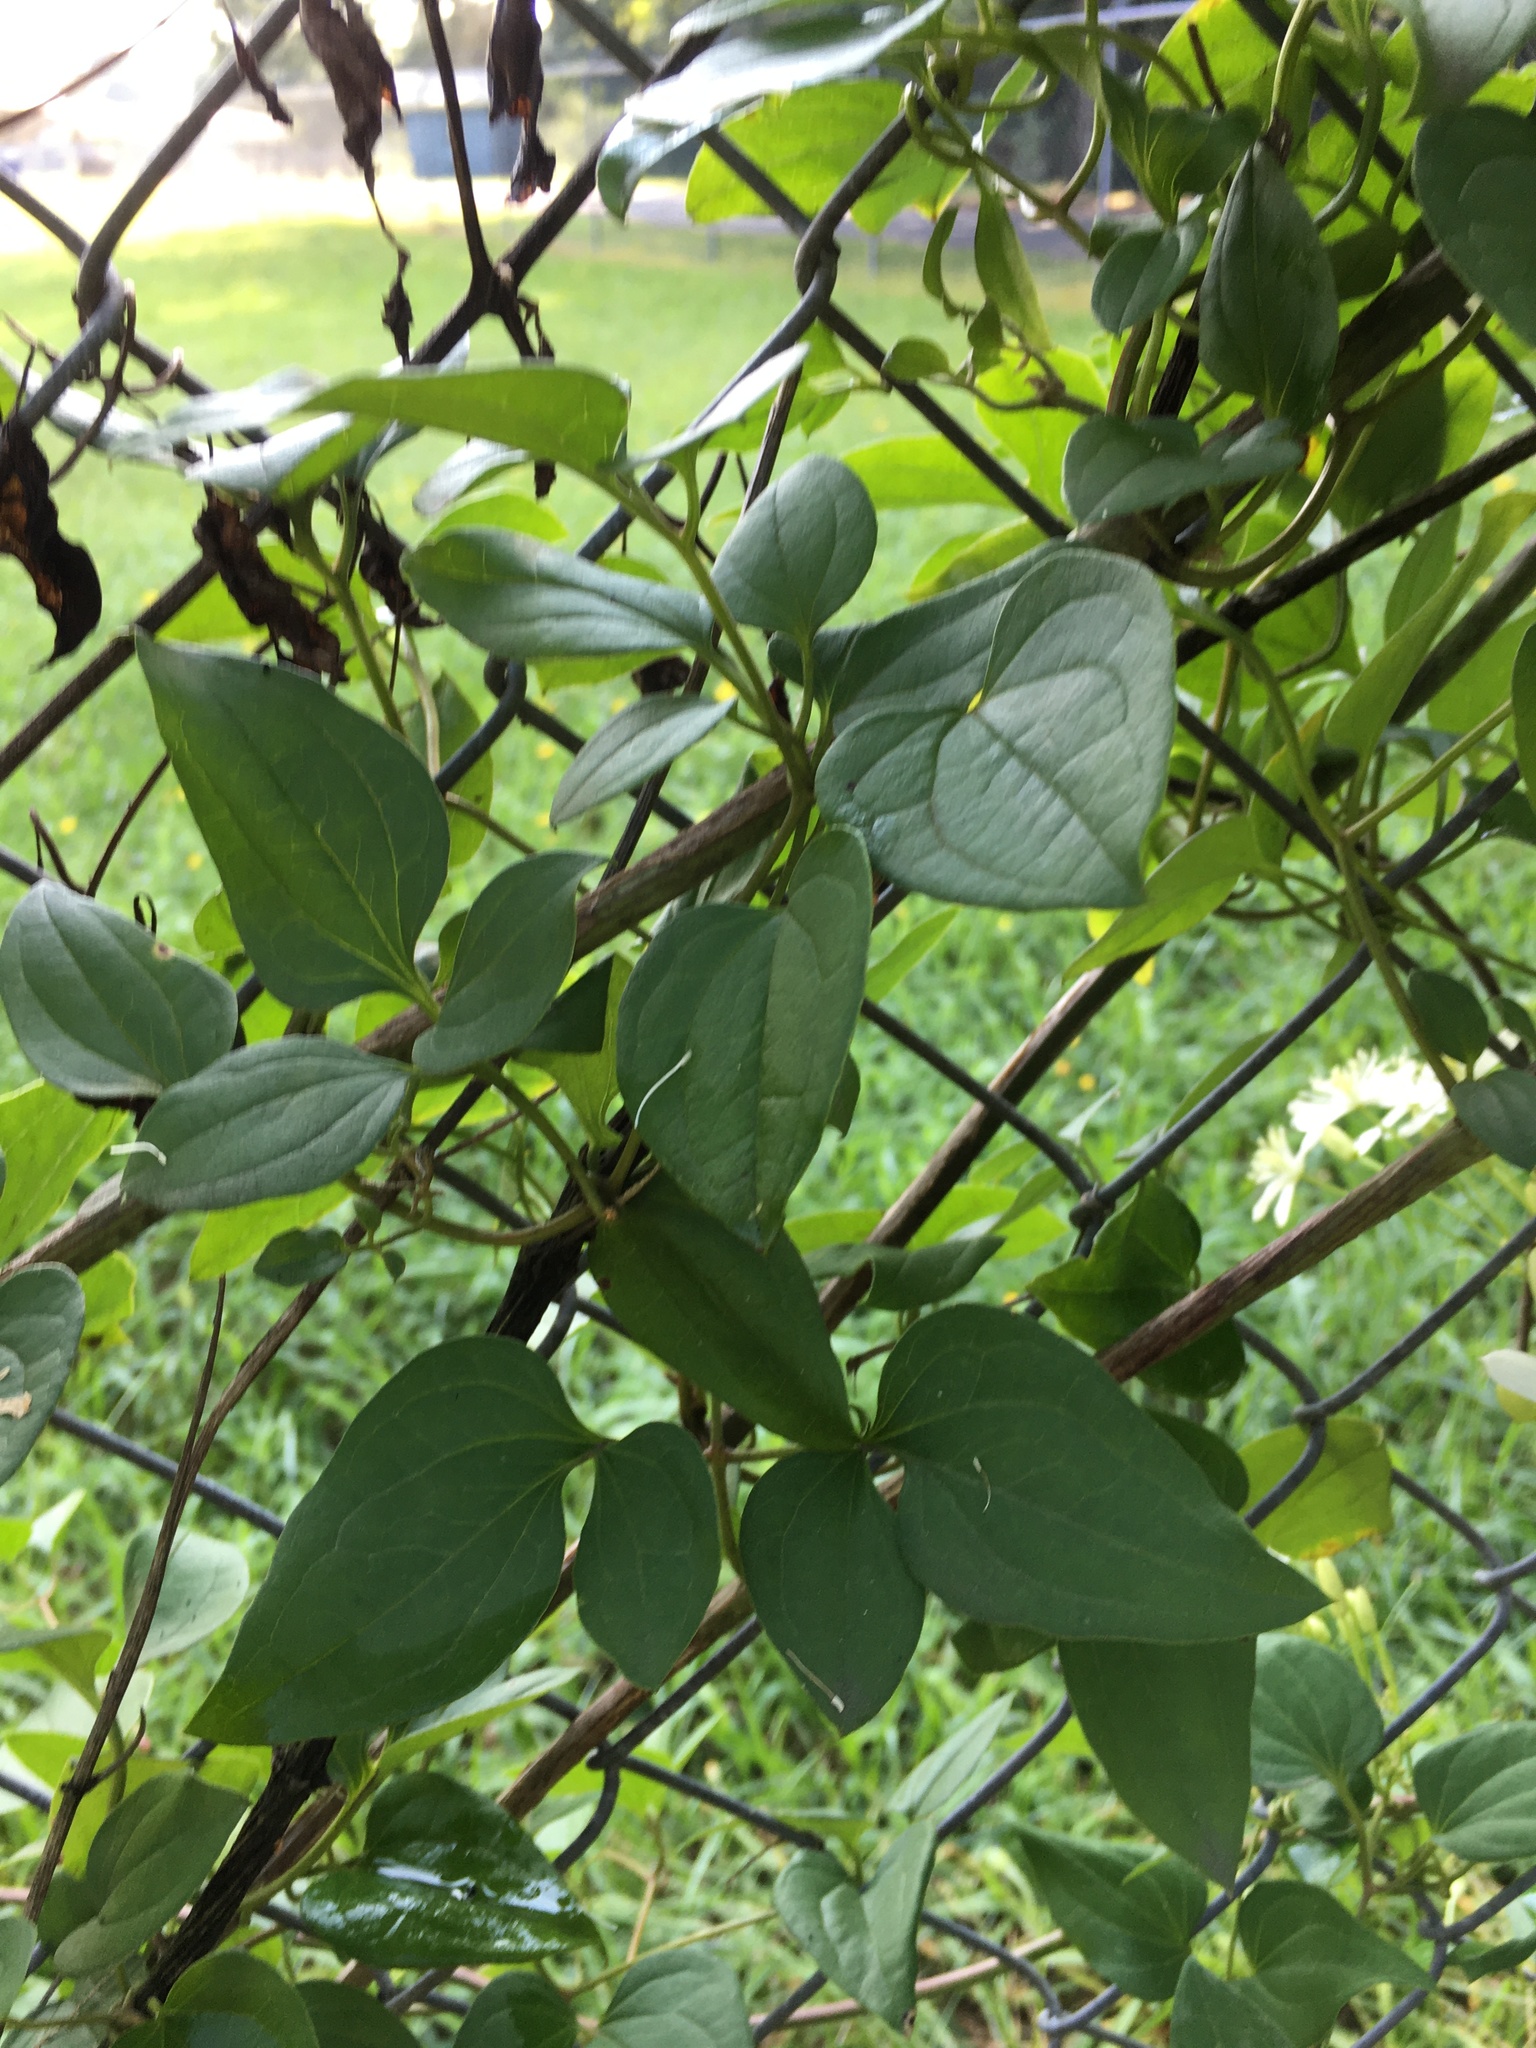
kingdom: Plantae
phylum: Tracheophyta
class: Magnoliopsida
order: Ranunculales
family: Ranunculaceae
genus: Clematis
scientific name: Clematis terniflora
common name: Sweet autumn clematis
